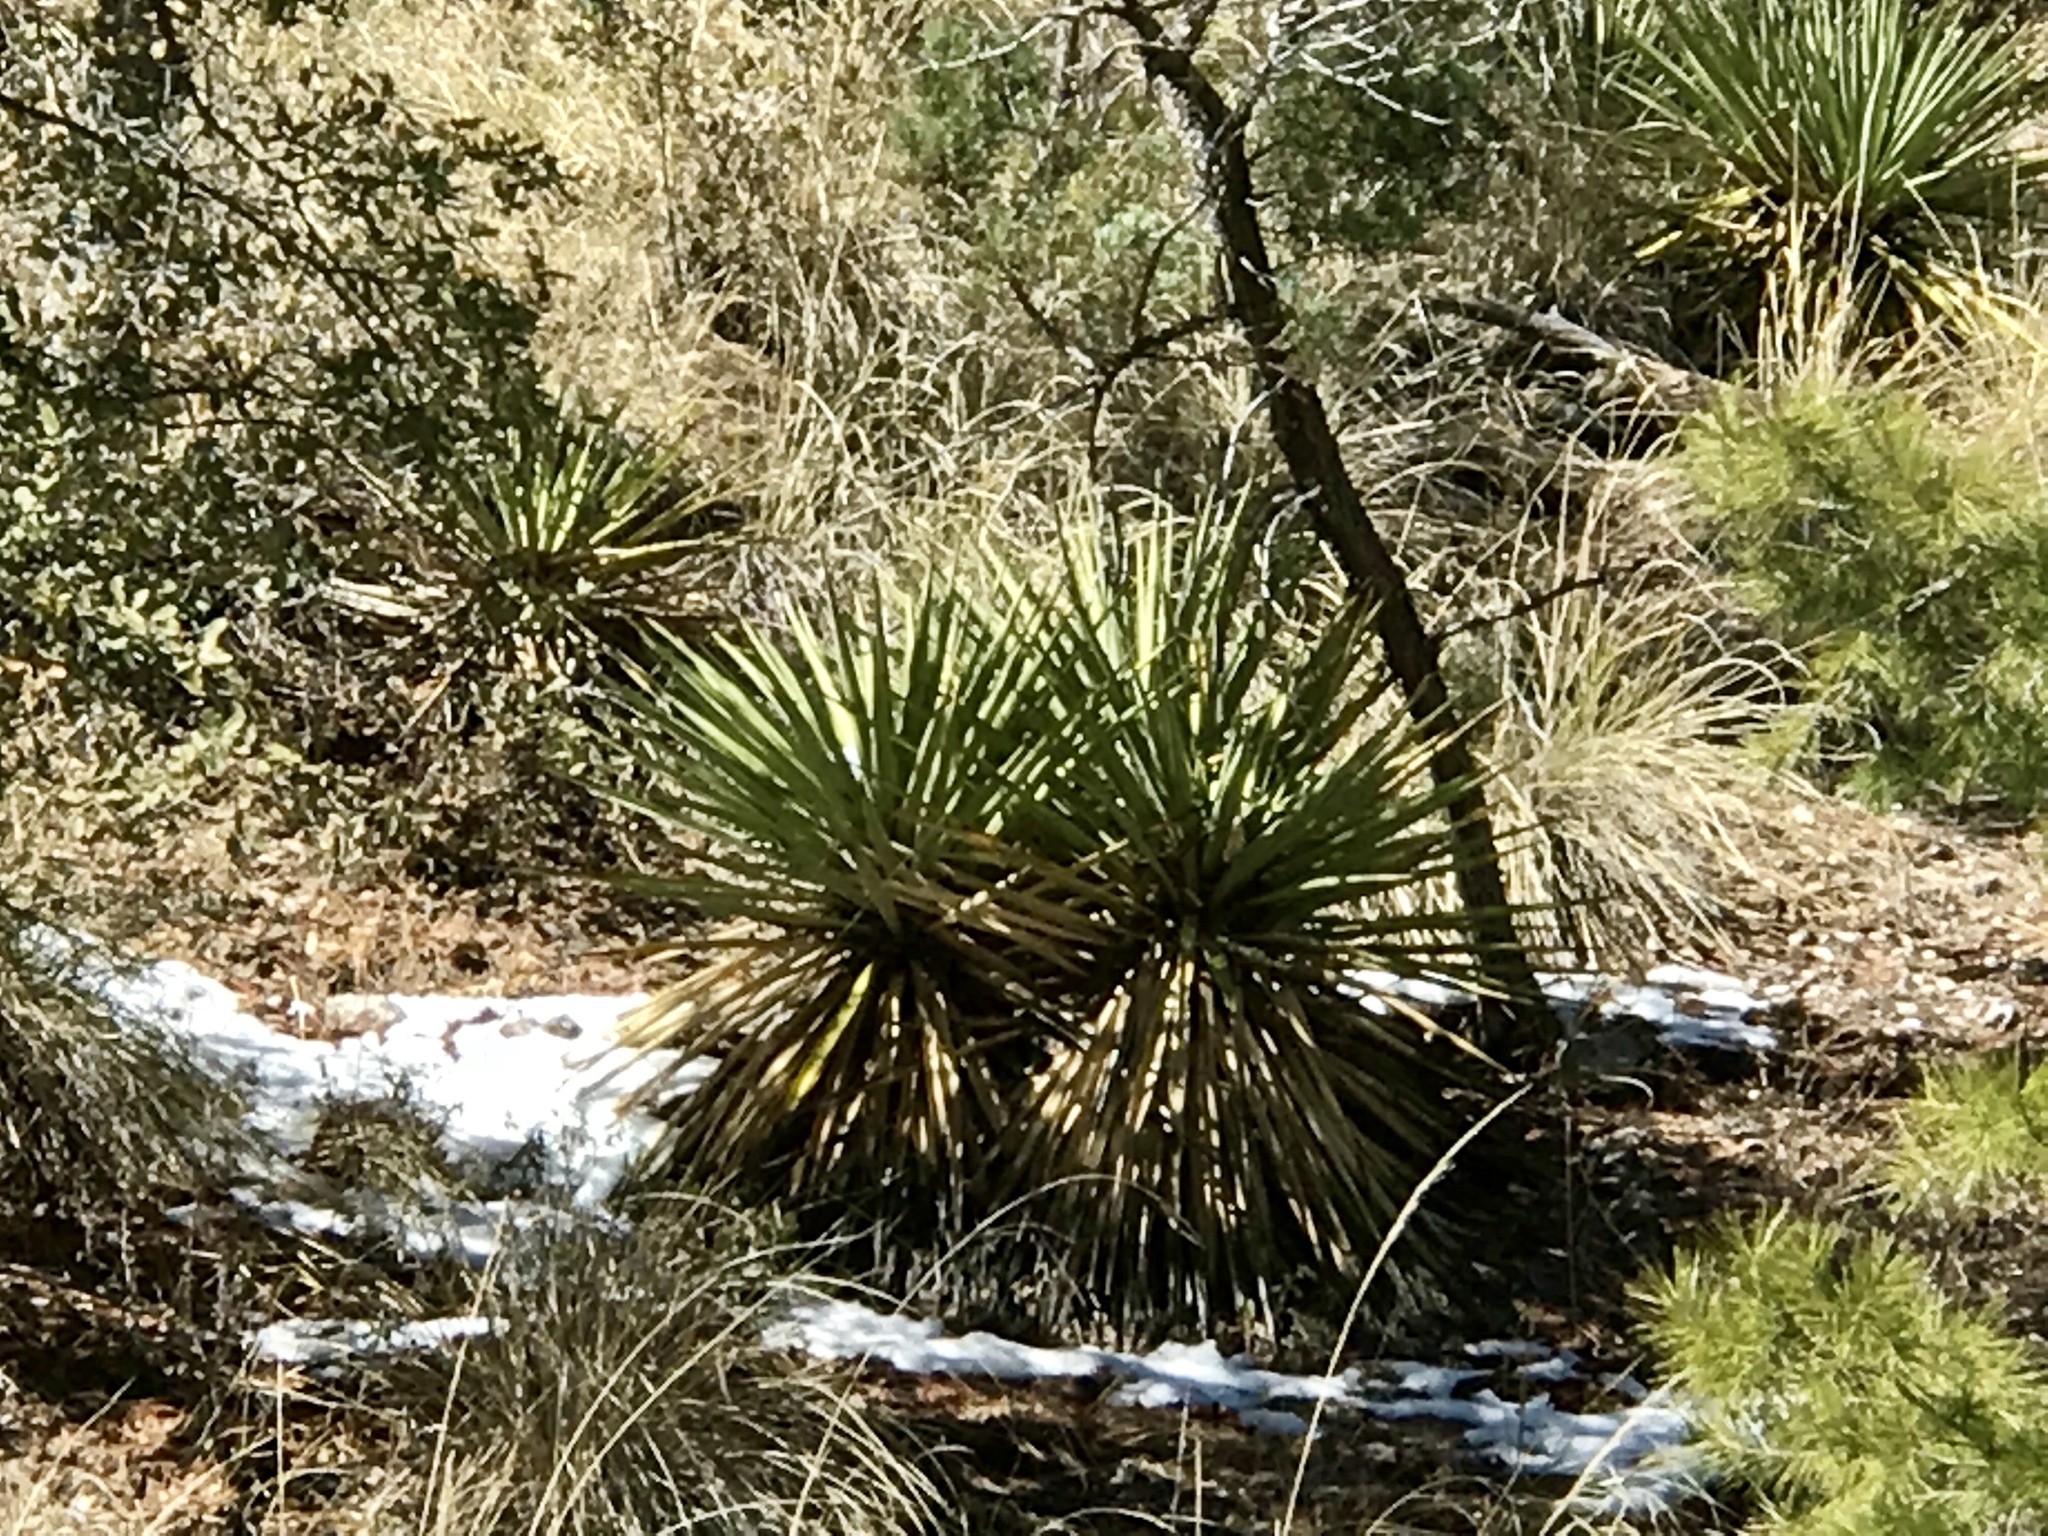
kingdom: Plantae
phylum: Tracheophyta
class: Liliopsida
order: Asparagales
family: Asparagaceae
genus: Yucca
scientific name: Yucca madrensis
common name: Hoary yucca
